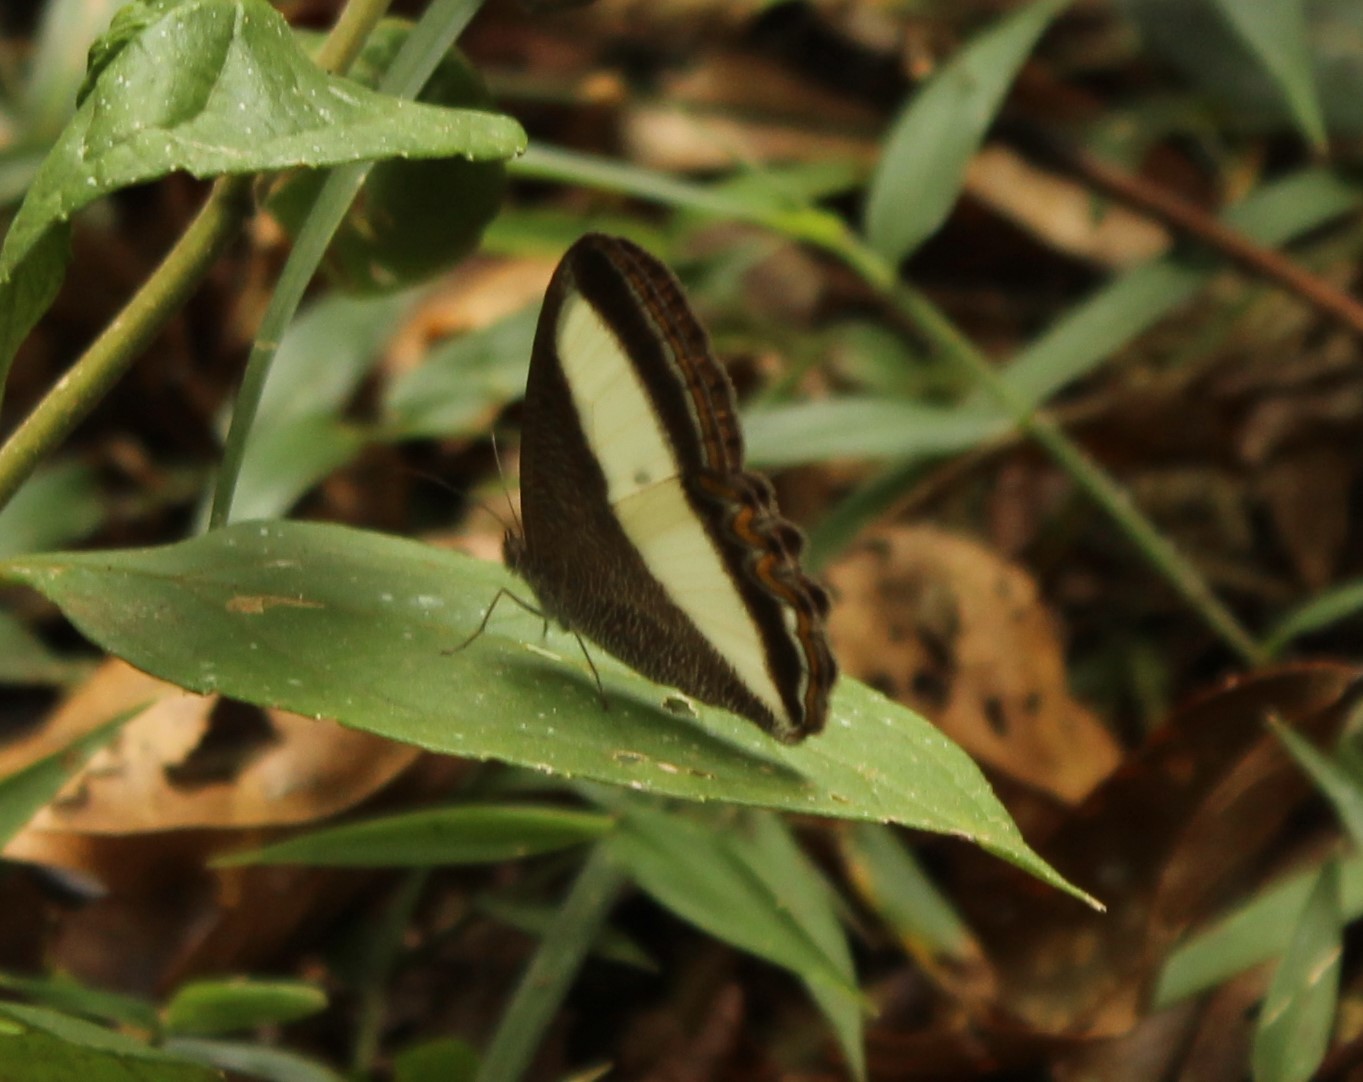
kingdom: Animalia
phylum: Arthropoda
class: Insecta
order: Lepidoptera
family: Nymphalidae
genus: Oressinoma
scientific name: Oressinoma typhla
